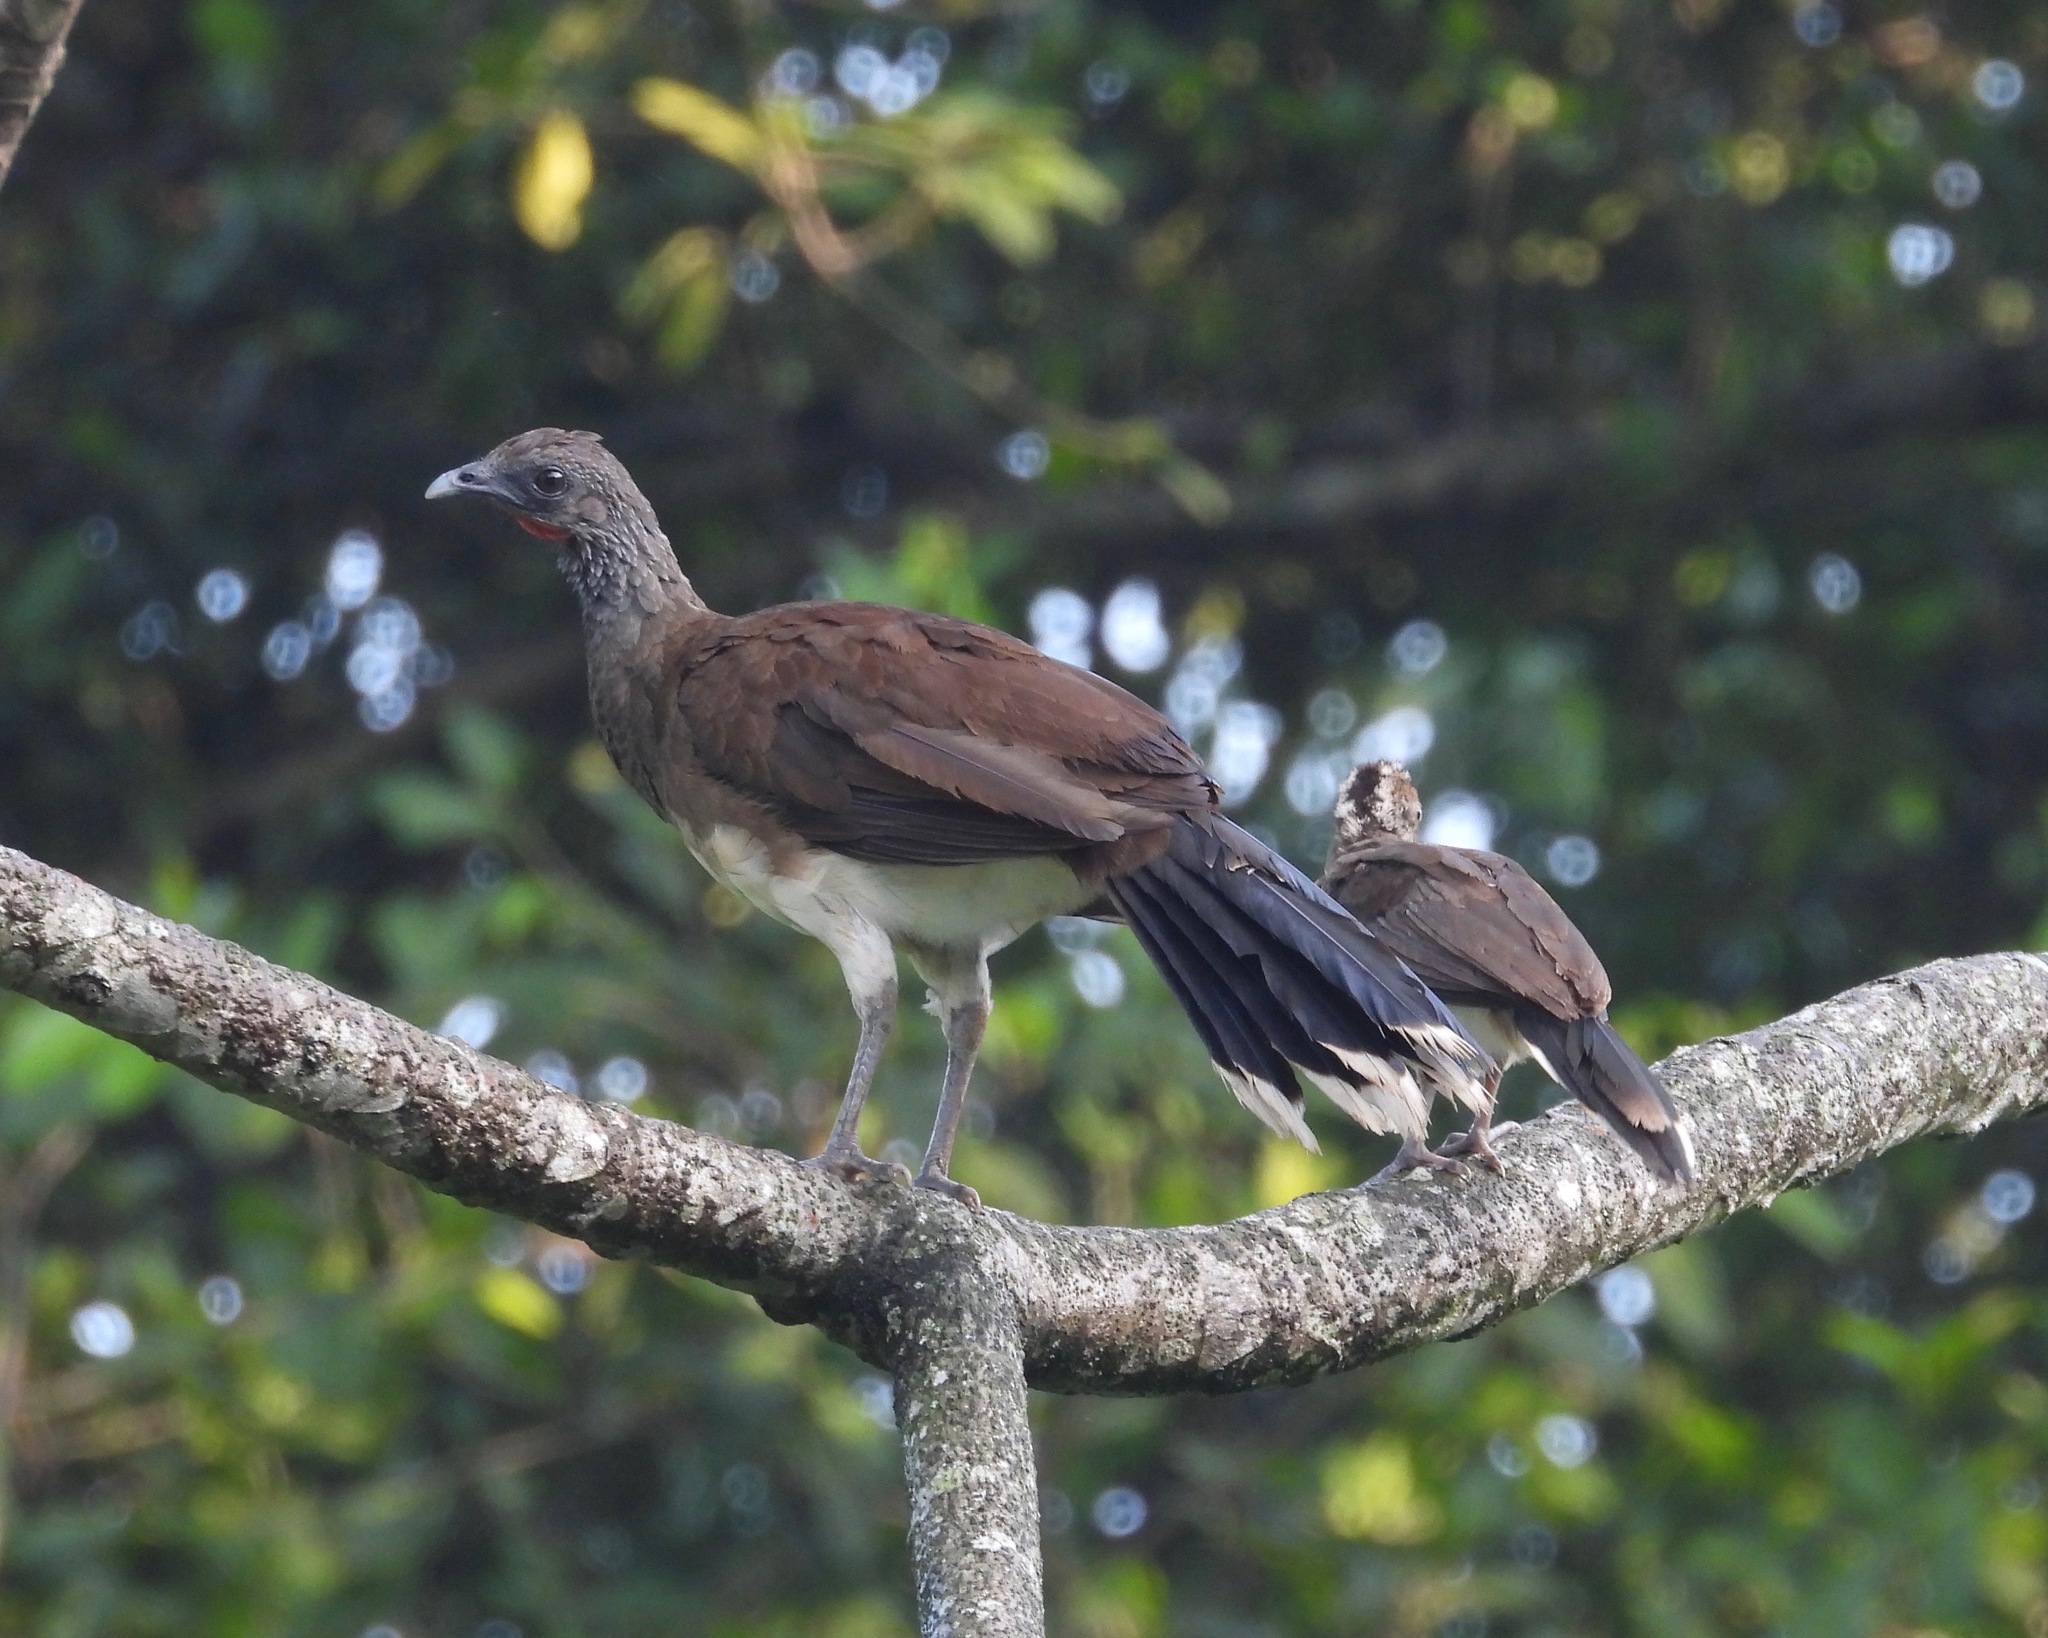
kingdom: Animalia
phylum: Chordata
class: Aves
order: Galliformes
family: Cracidae
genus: Ortalis
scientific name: Ortalis leucogastra
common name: White-bellied chachalaca
